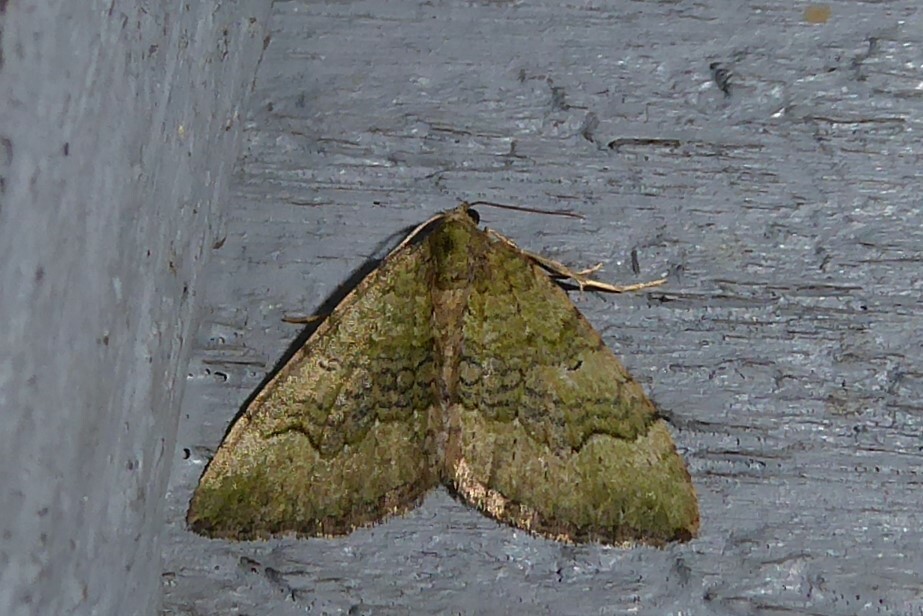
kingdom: Animalia
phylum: Arthropoda
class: Insecta
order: Lepidoptera
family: Geometridae
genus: Epyaxa
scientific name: Epyaxa rosearia
